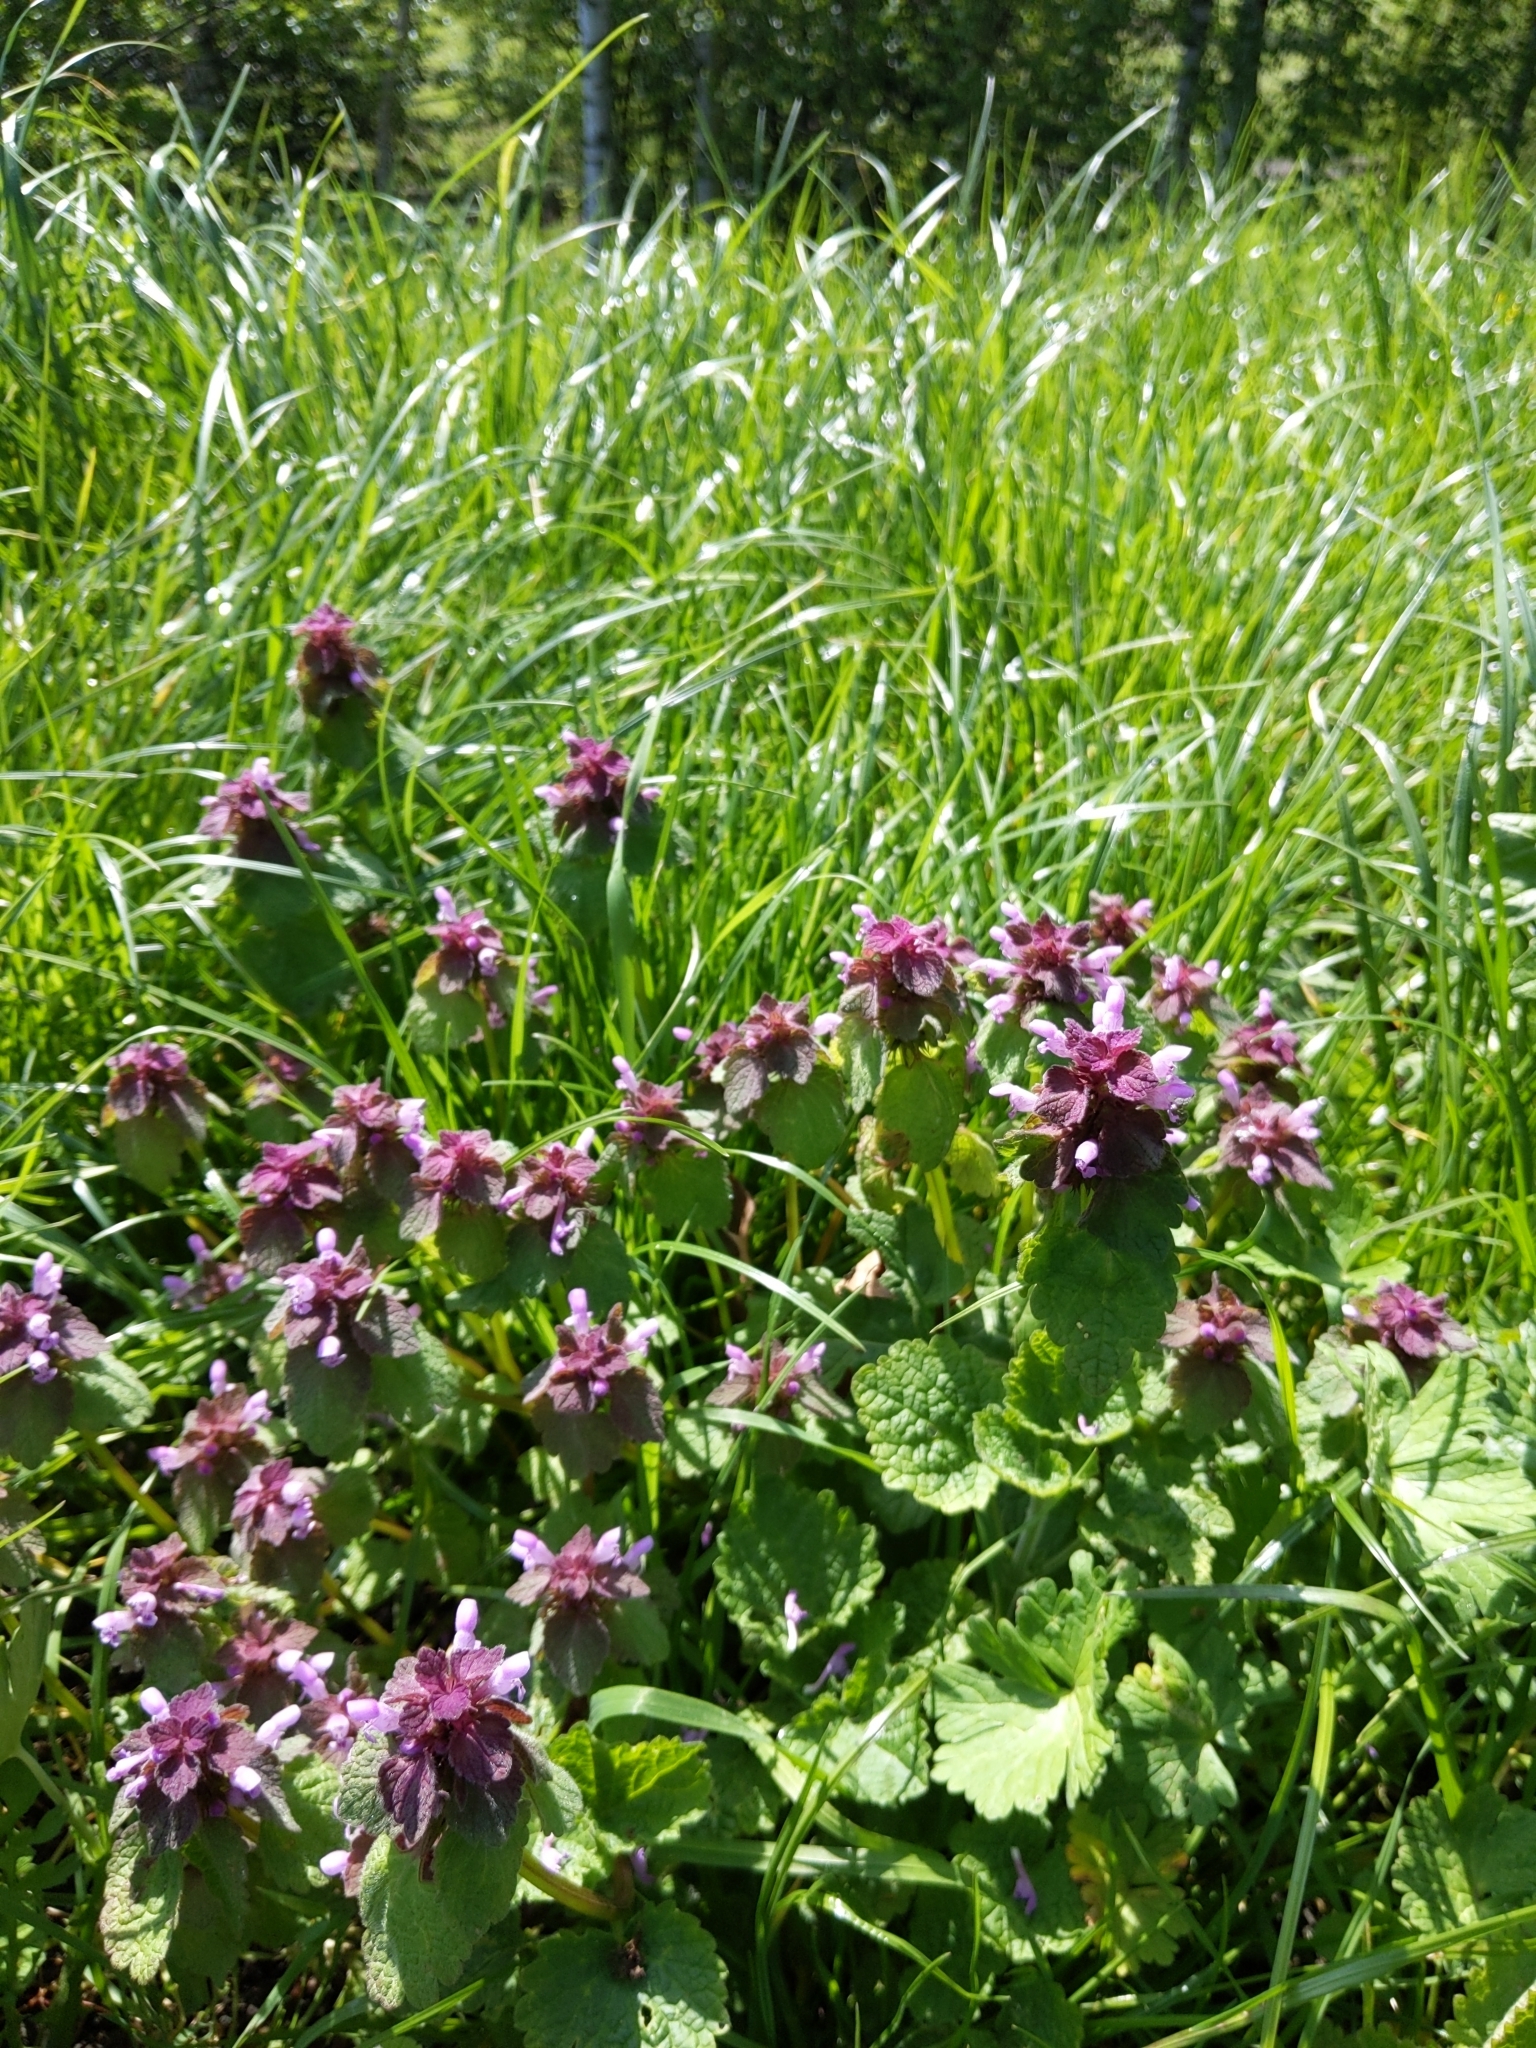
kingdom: Plantae
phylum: Tracheophyta
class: Magnoliopsida
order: Lamiales
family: Lamiaceae
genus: Lamium
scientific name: Lamium purpureum
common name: Red dead-nettle
